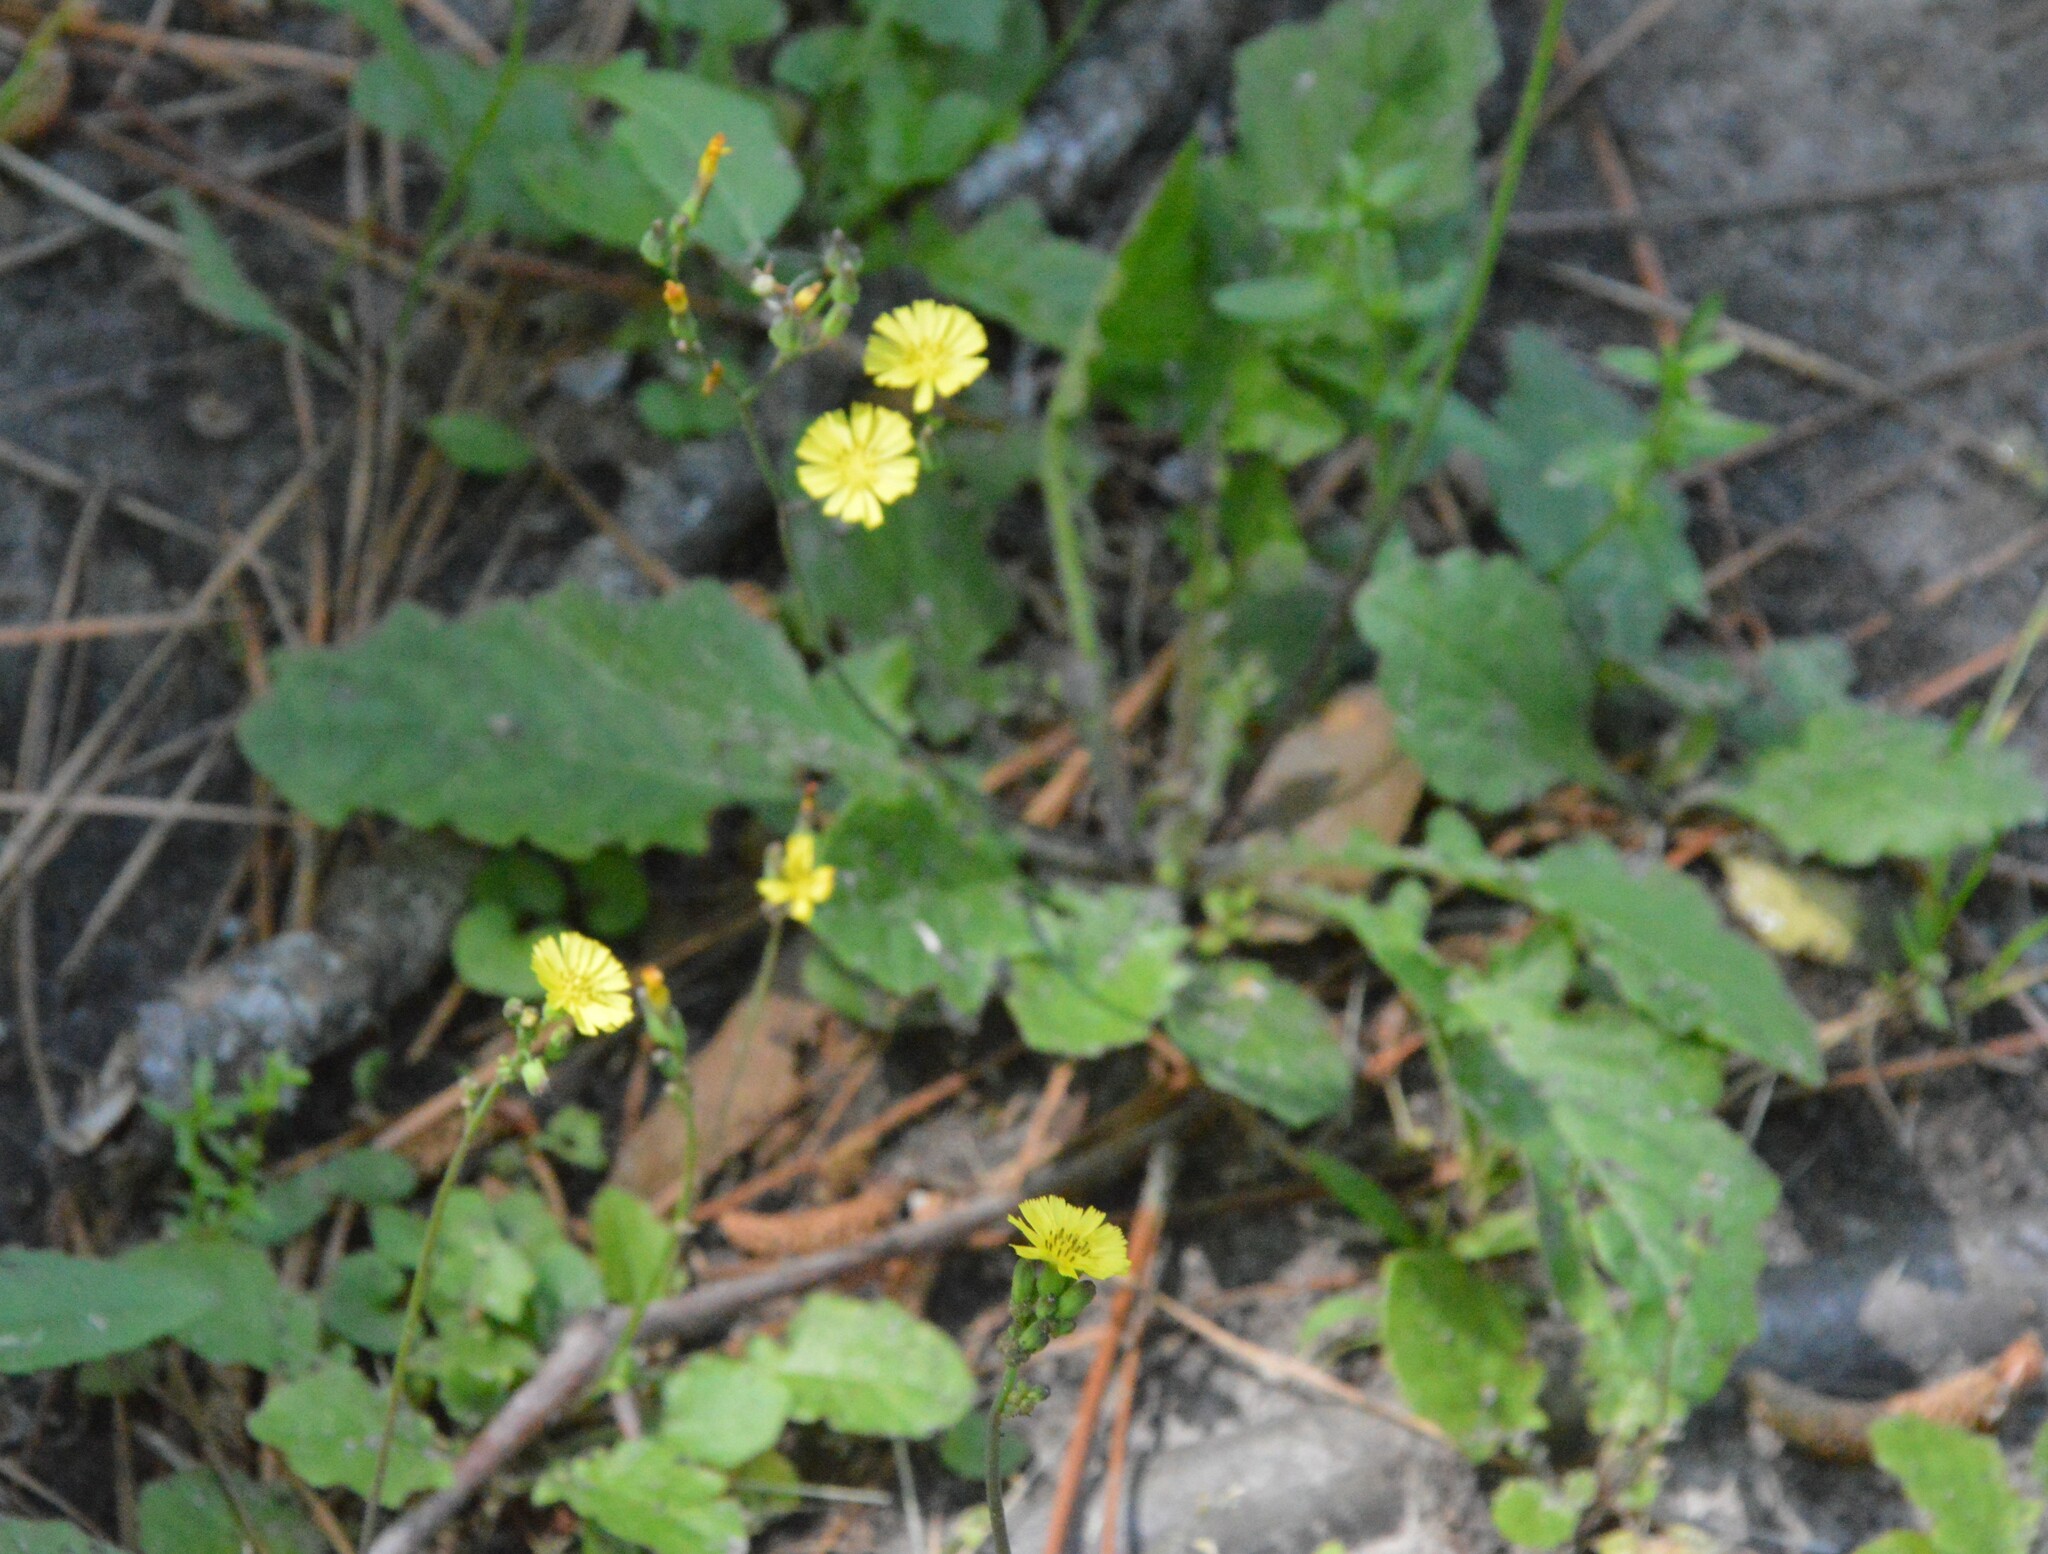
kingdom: Plantae
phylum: Tracheophyta
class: Magnoliopsida
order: Asterales
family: Asteraceae
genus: Youngia
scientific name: Youngia japonica
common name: Oriental false hawksbeard
